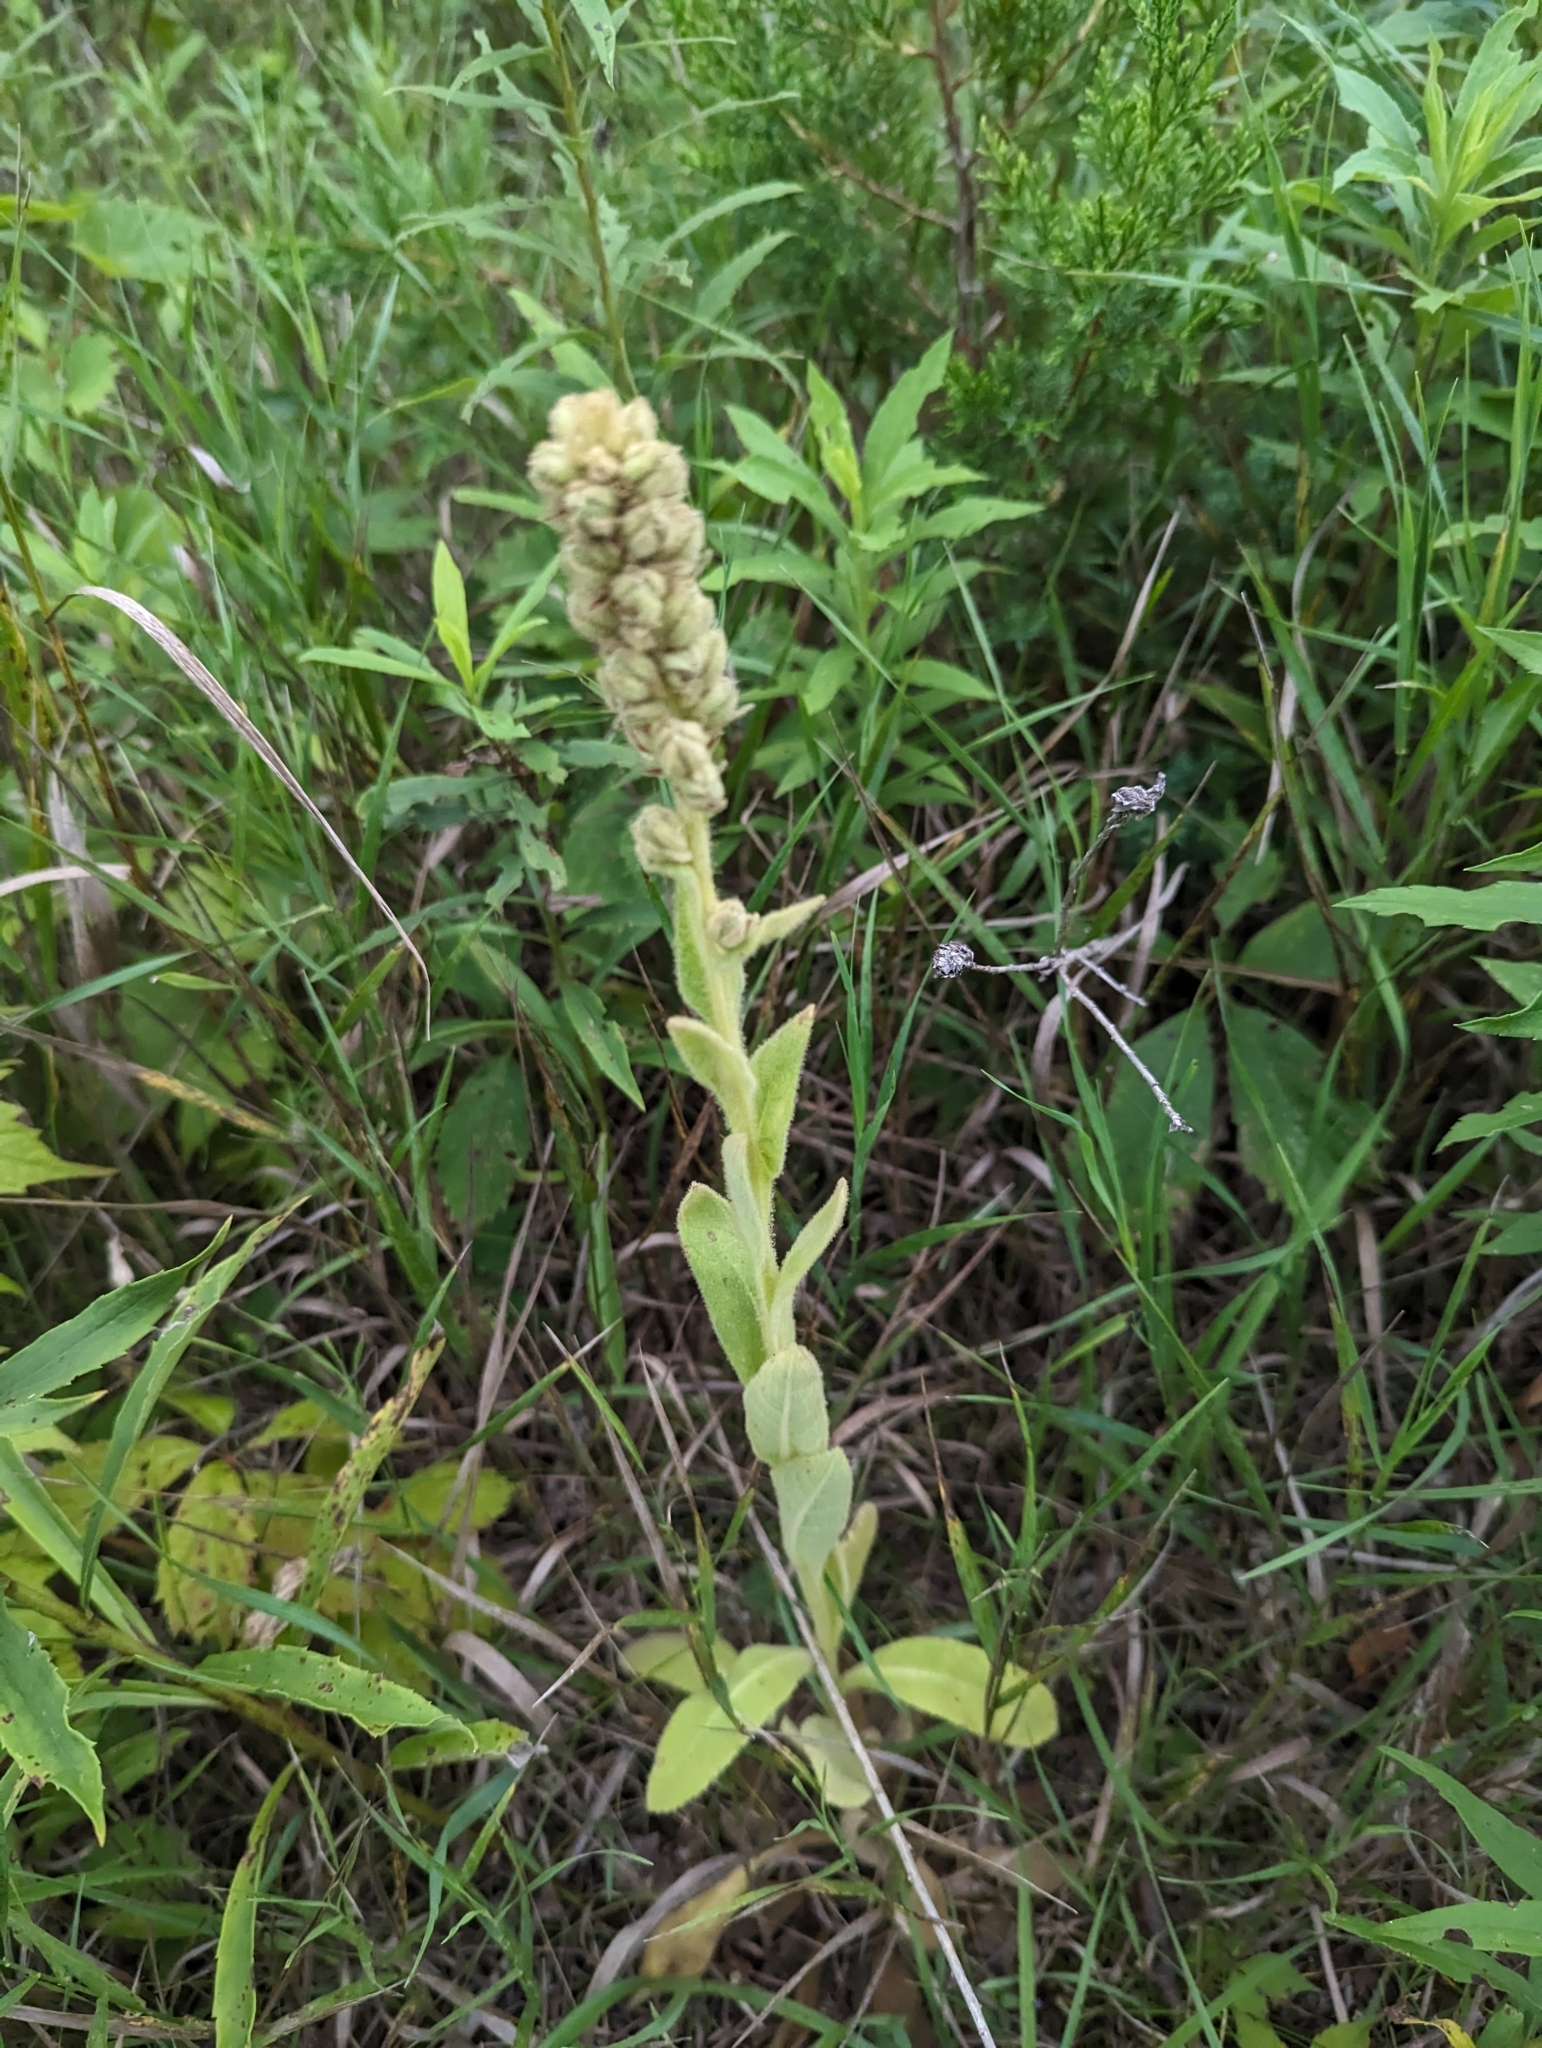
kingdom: Plantae
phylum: Tracheophyta
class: Magnoliopsida
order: Lamiales
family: Scrophulariaceae
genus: Verbascum
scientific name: Verbascum thapsus
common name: Common mullein
